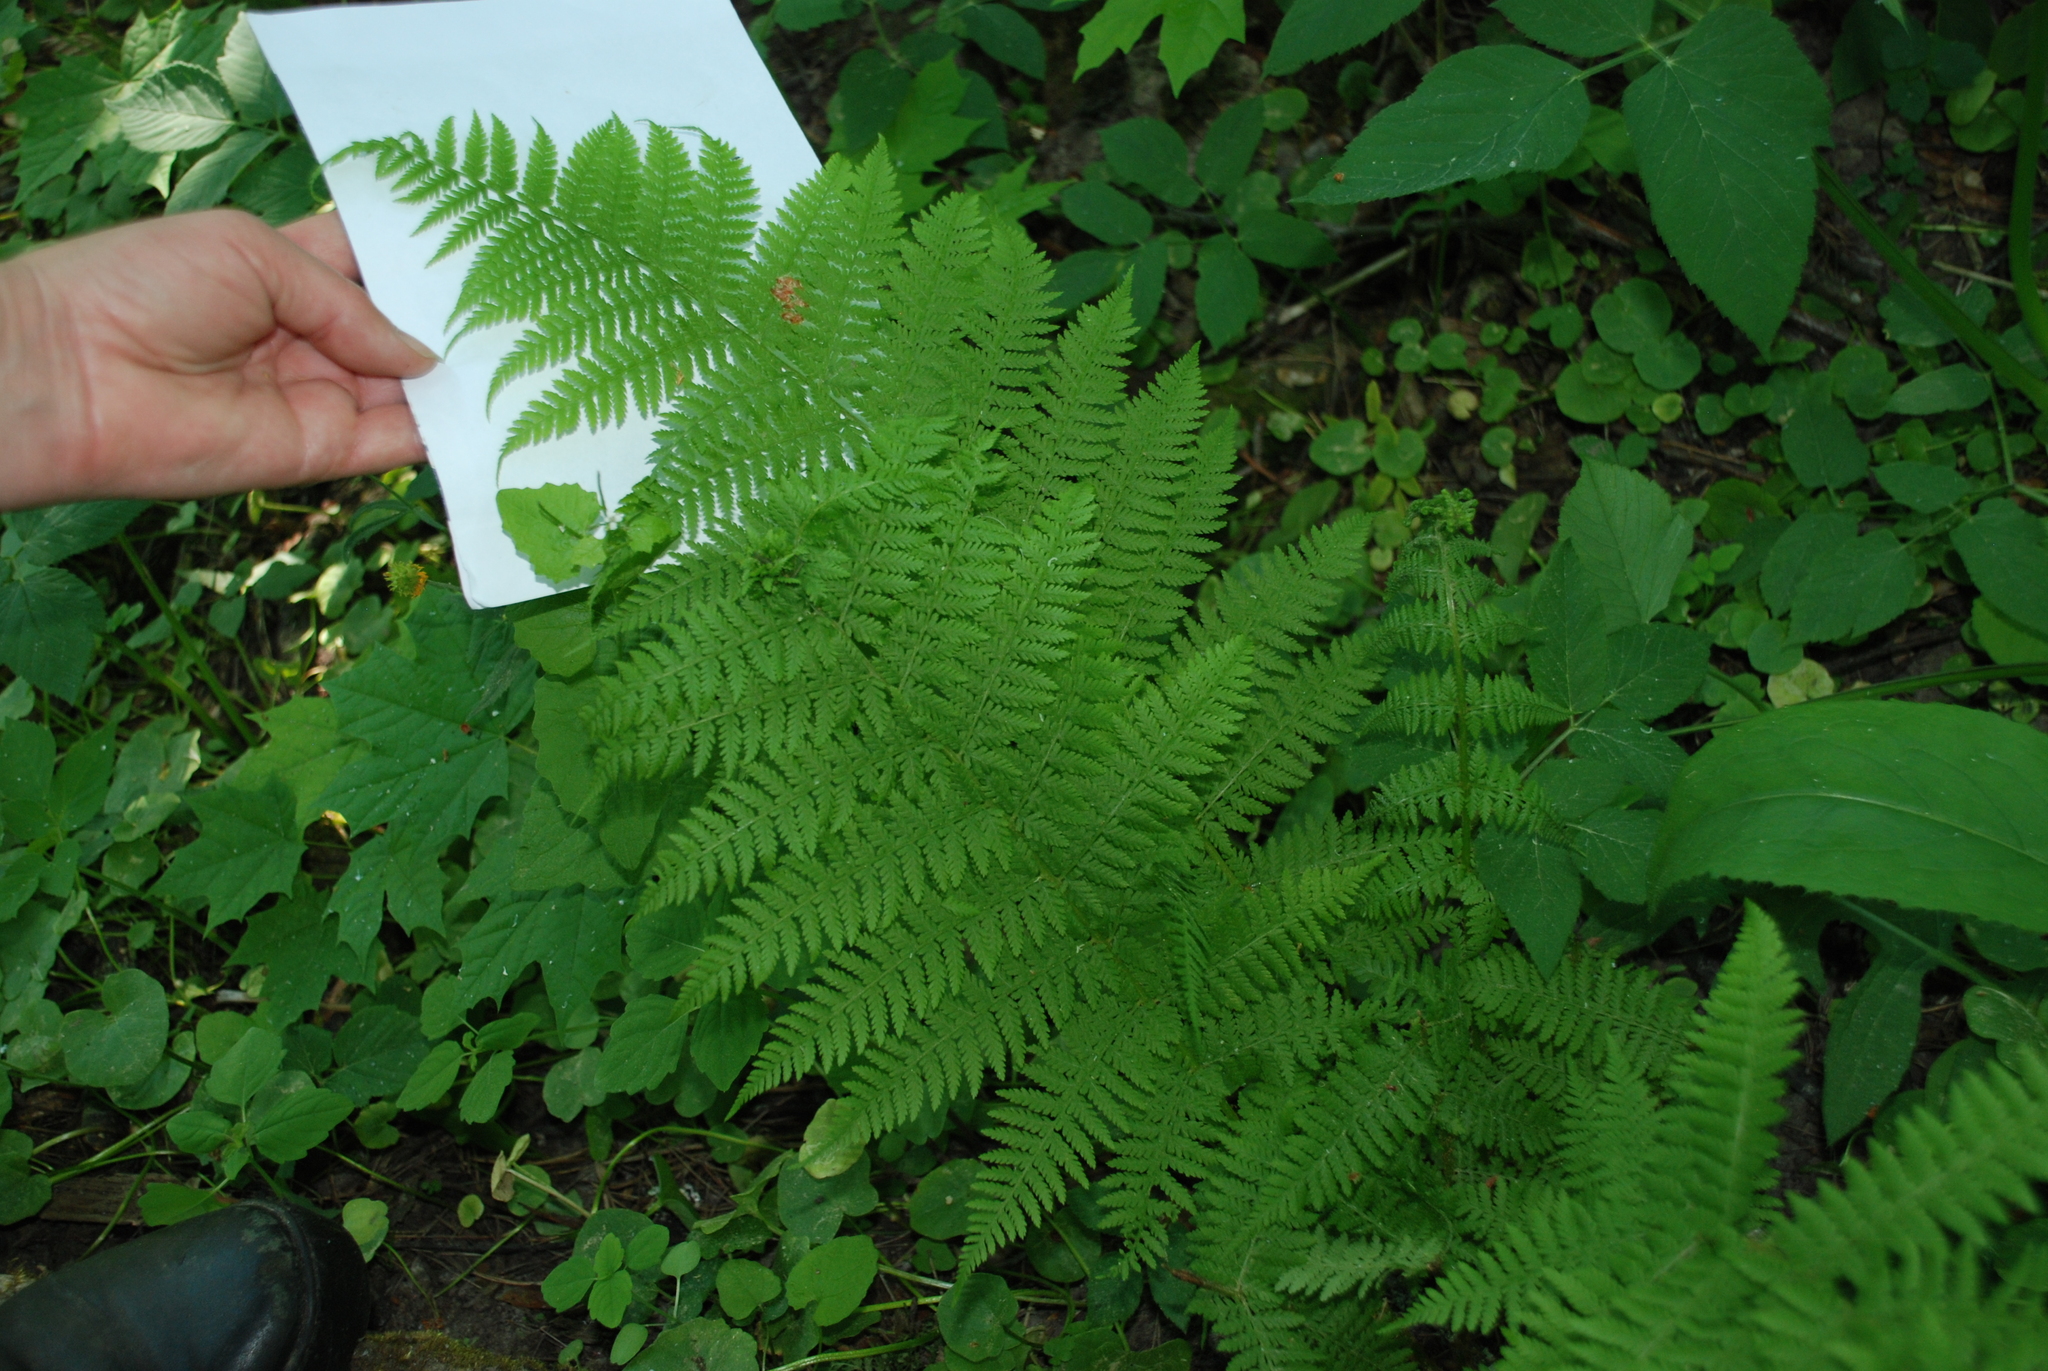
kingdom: Plantae
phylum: Tracheophyta
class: Polypodiopsida
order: Polypodiales
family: Athyriaceae
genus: Athyrium
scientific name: Athyrium filix-femina
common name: Lady fern
